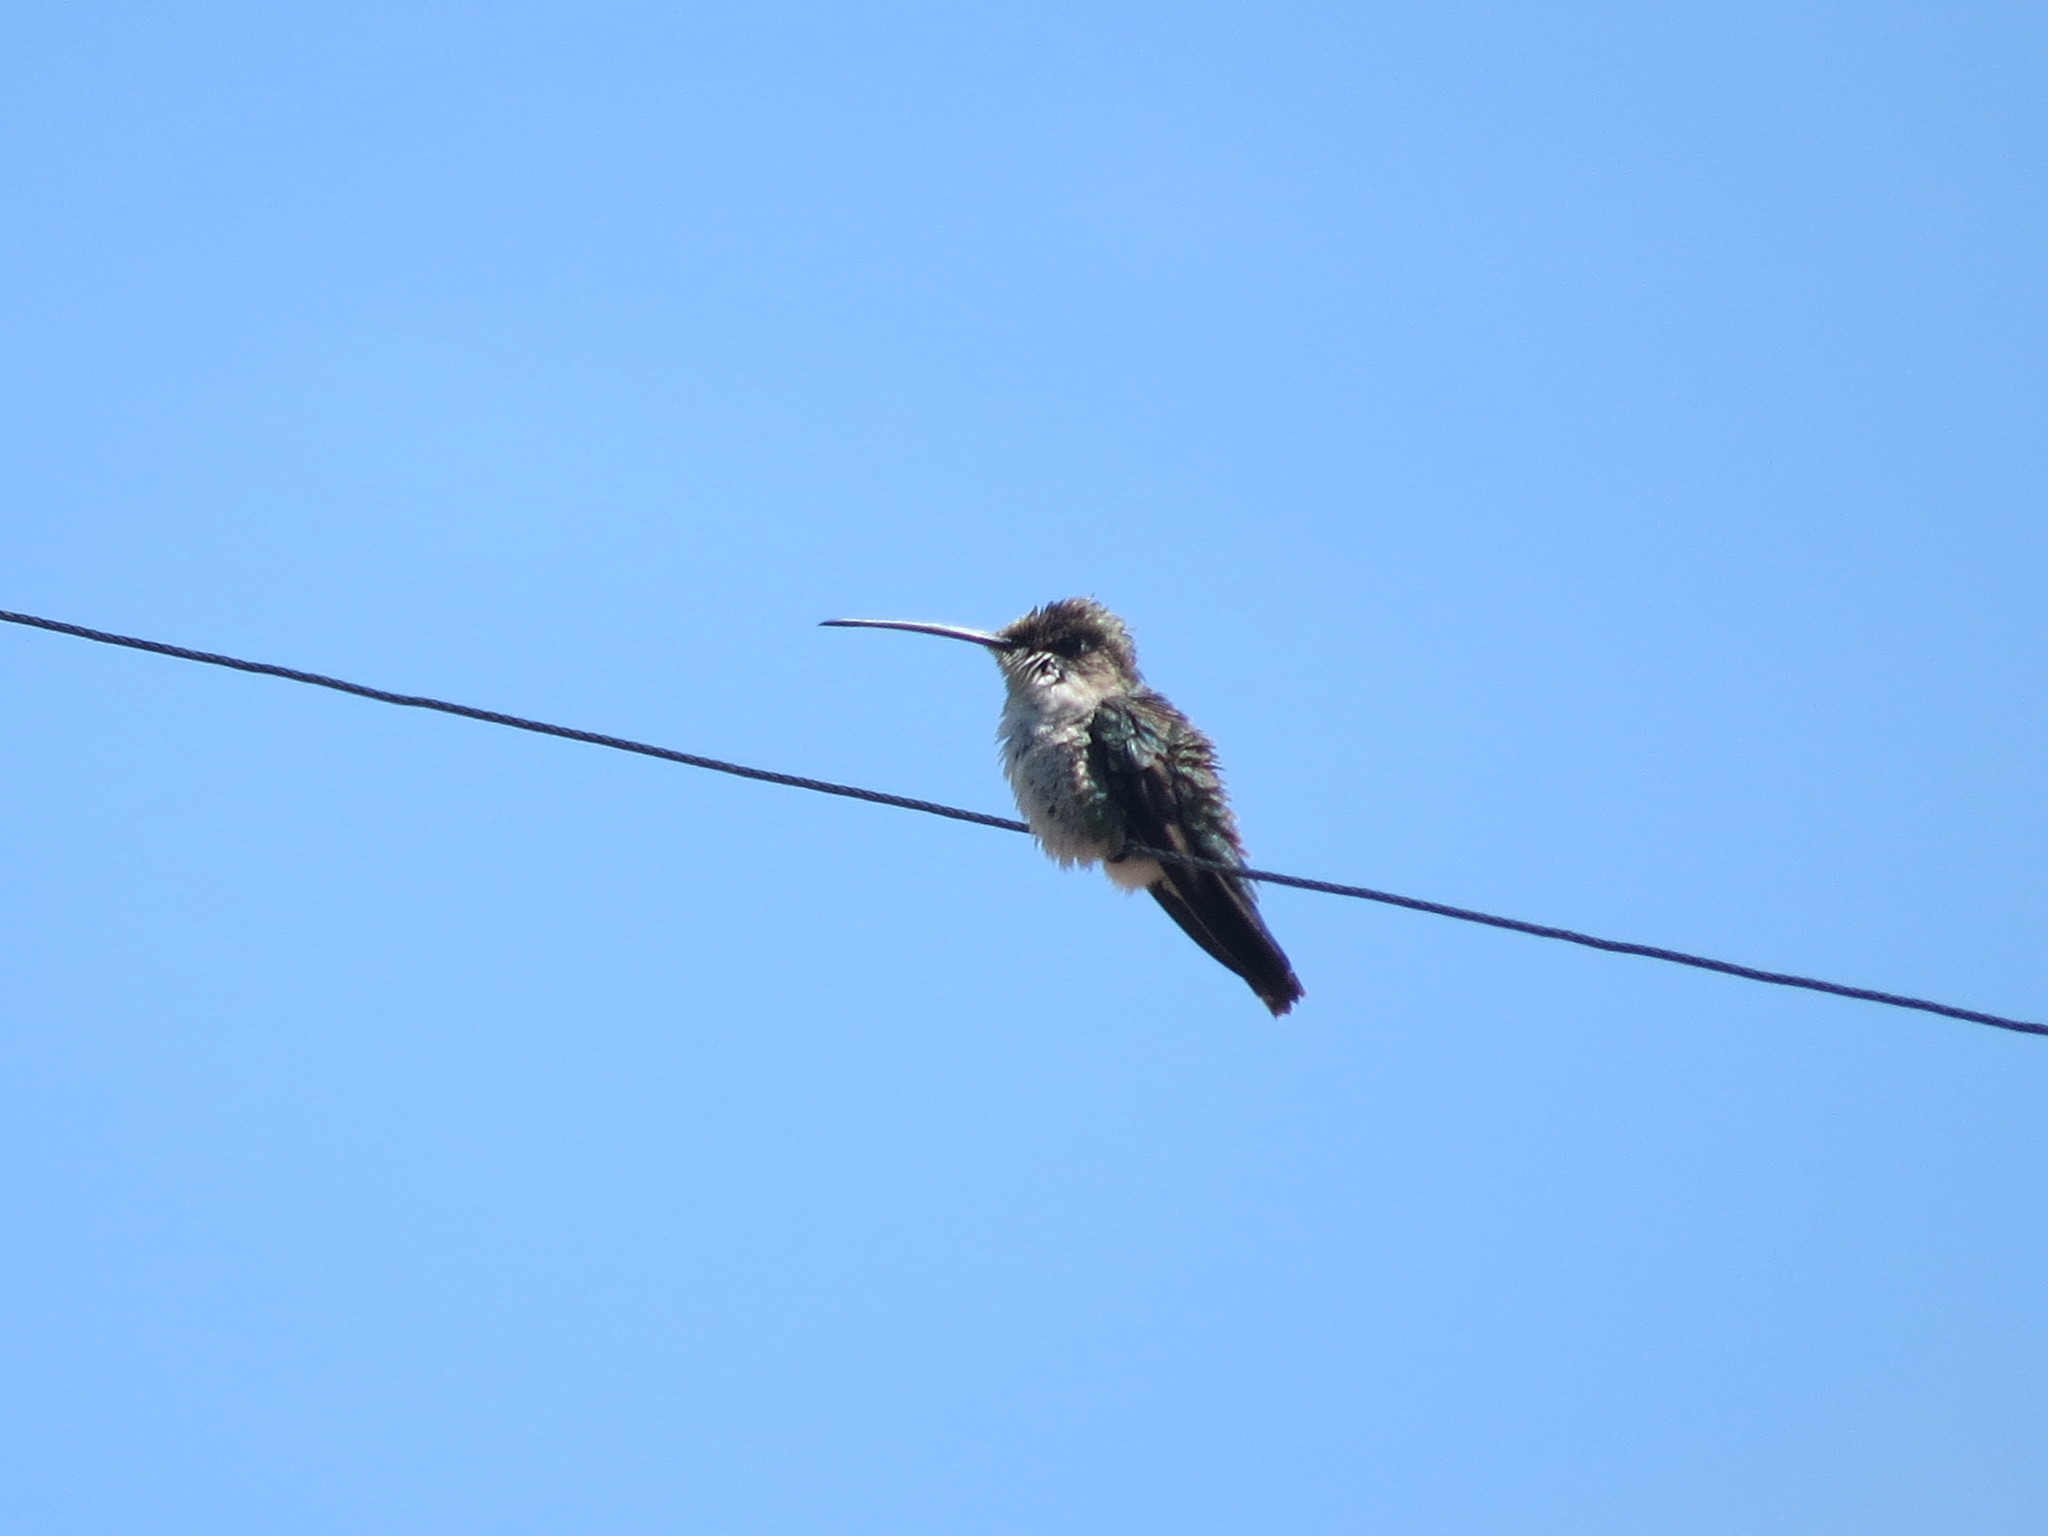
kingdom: Animalia
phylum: Chordata
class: Aves
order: Apodiformes
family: Trochilidae
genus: Heliomaster
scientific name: Heliomaster furcifer
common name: Blue-tufted starthroat
